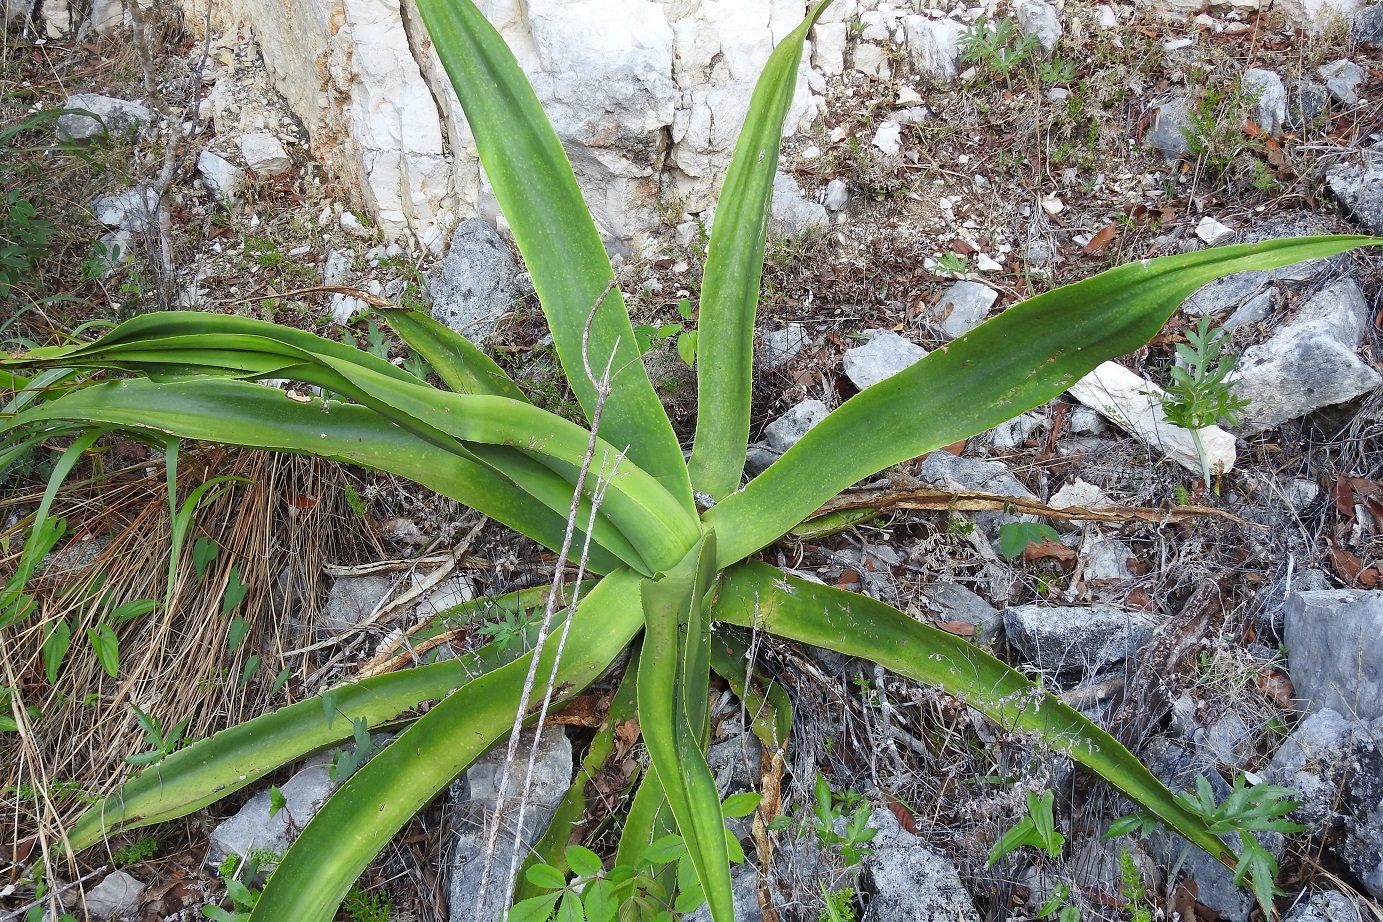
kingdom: Plantae
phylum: Tracheophyta
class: Liliopsida
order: Asparagales
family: Asparagaceae
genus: Agave
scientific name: Agave kewensis
